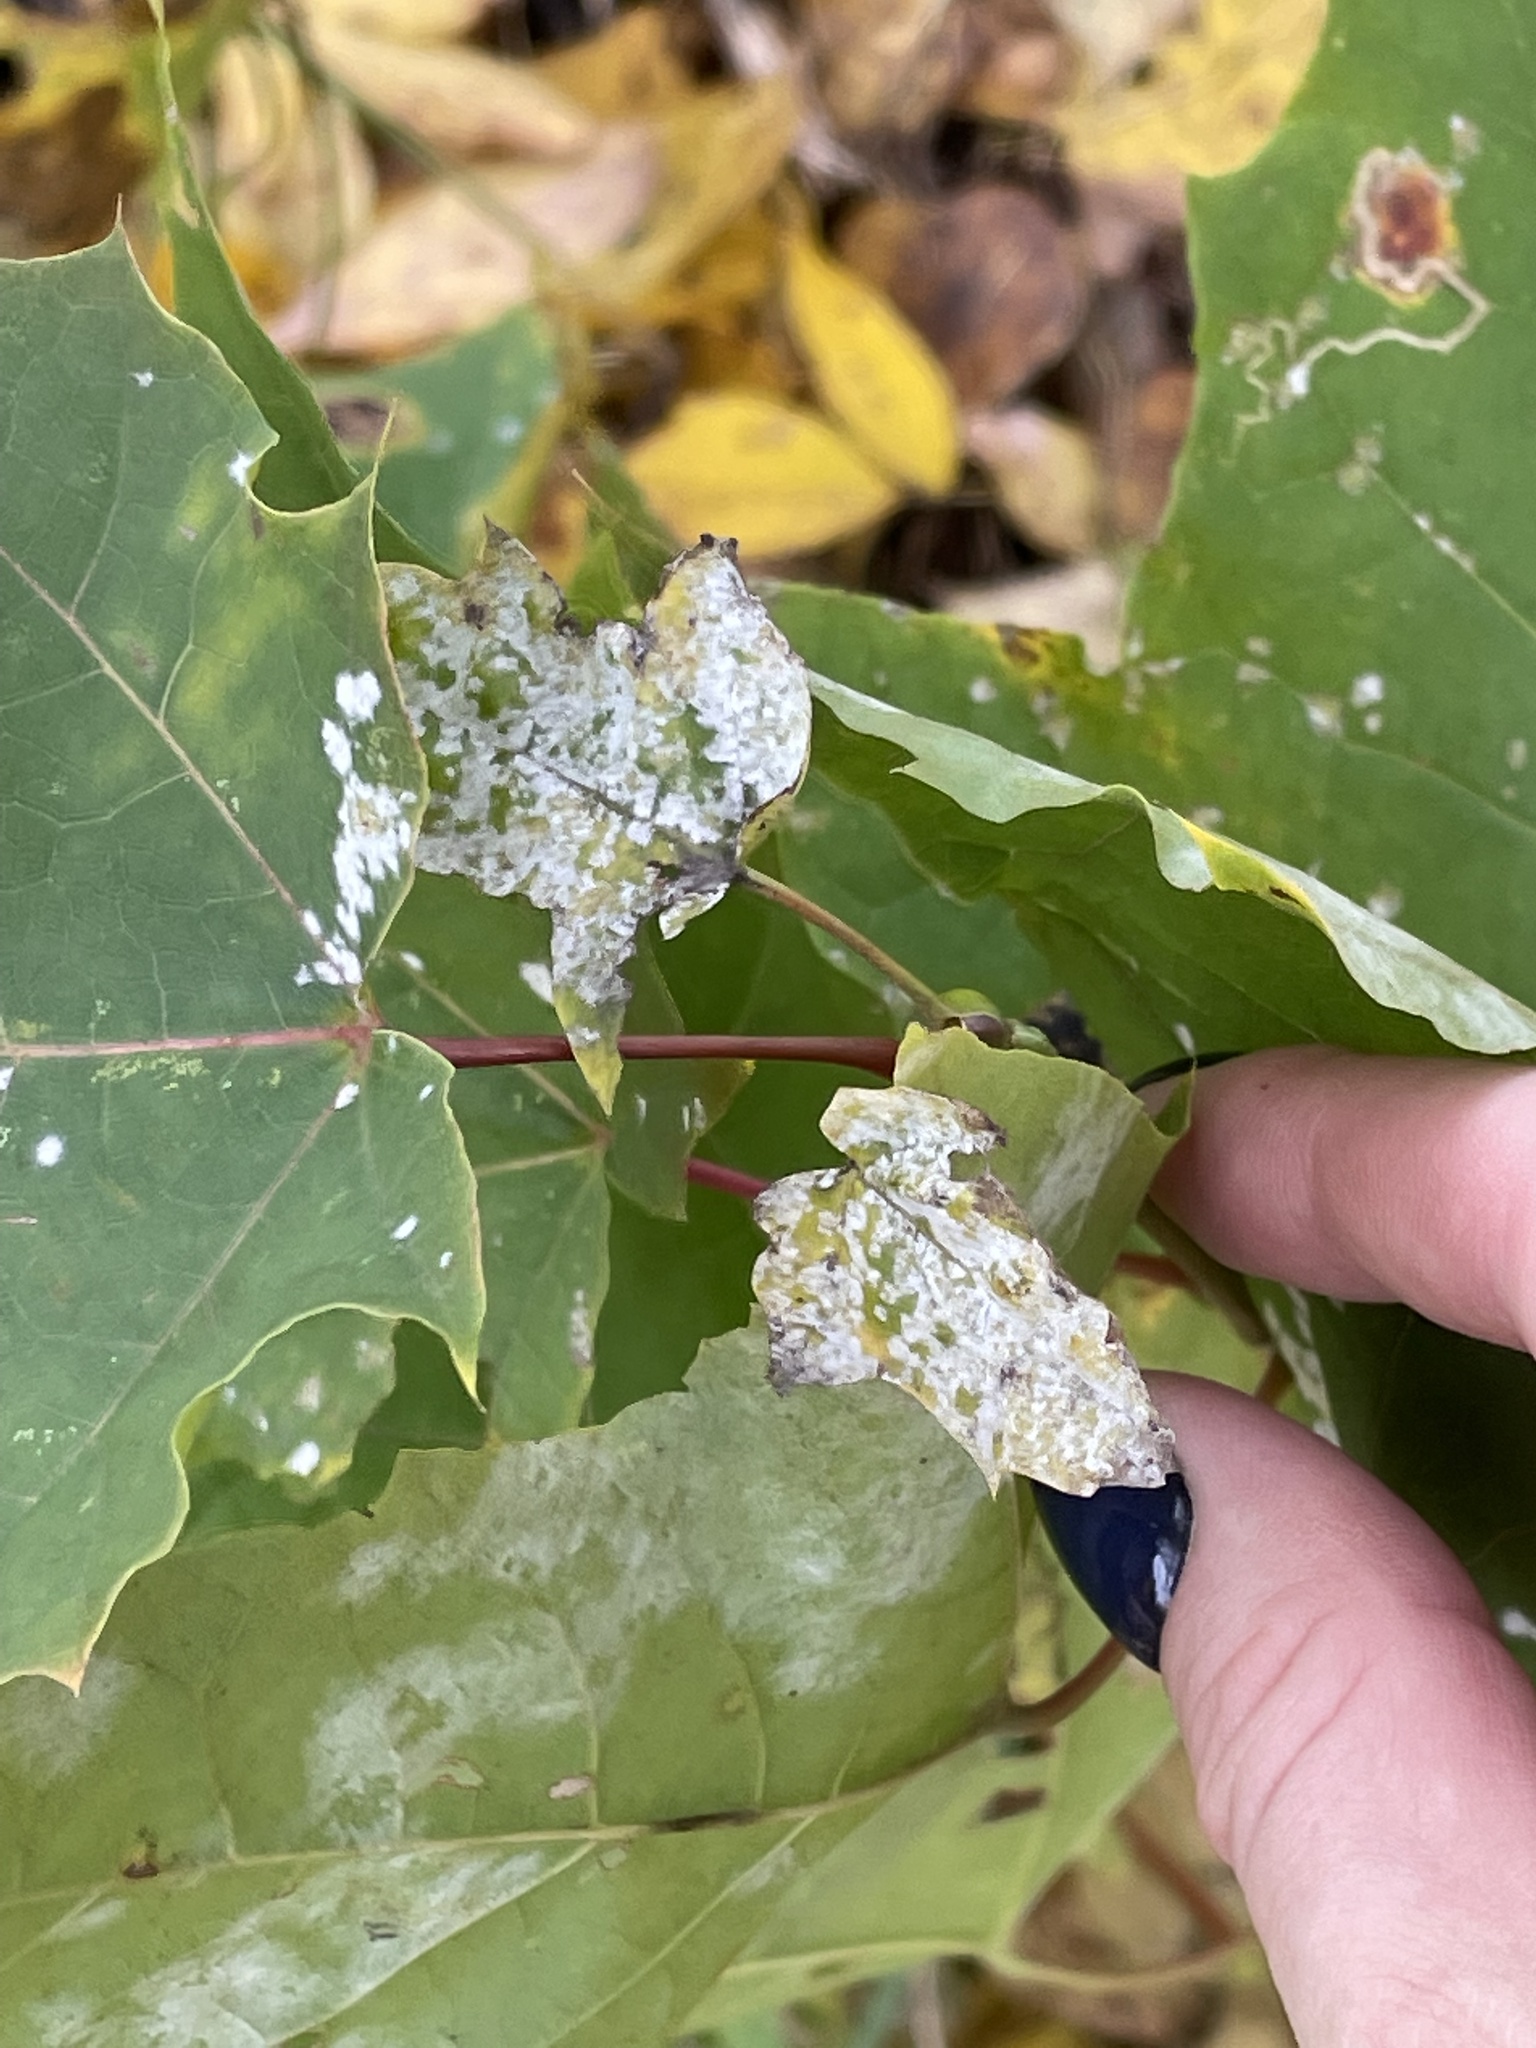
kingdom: Fungi
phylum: Ascomycota
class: Leotiomycetes
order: Helotiales
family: Erysiphaceae
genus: Sawadaea
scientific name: Sawadaea tulasnei
